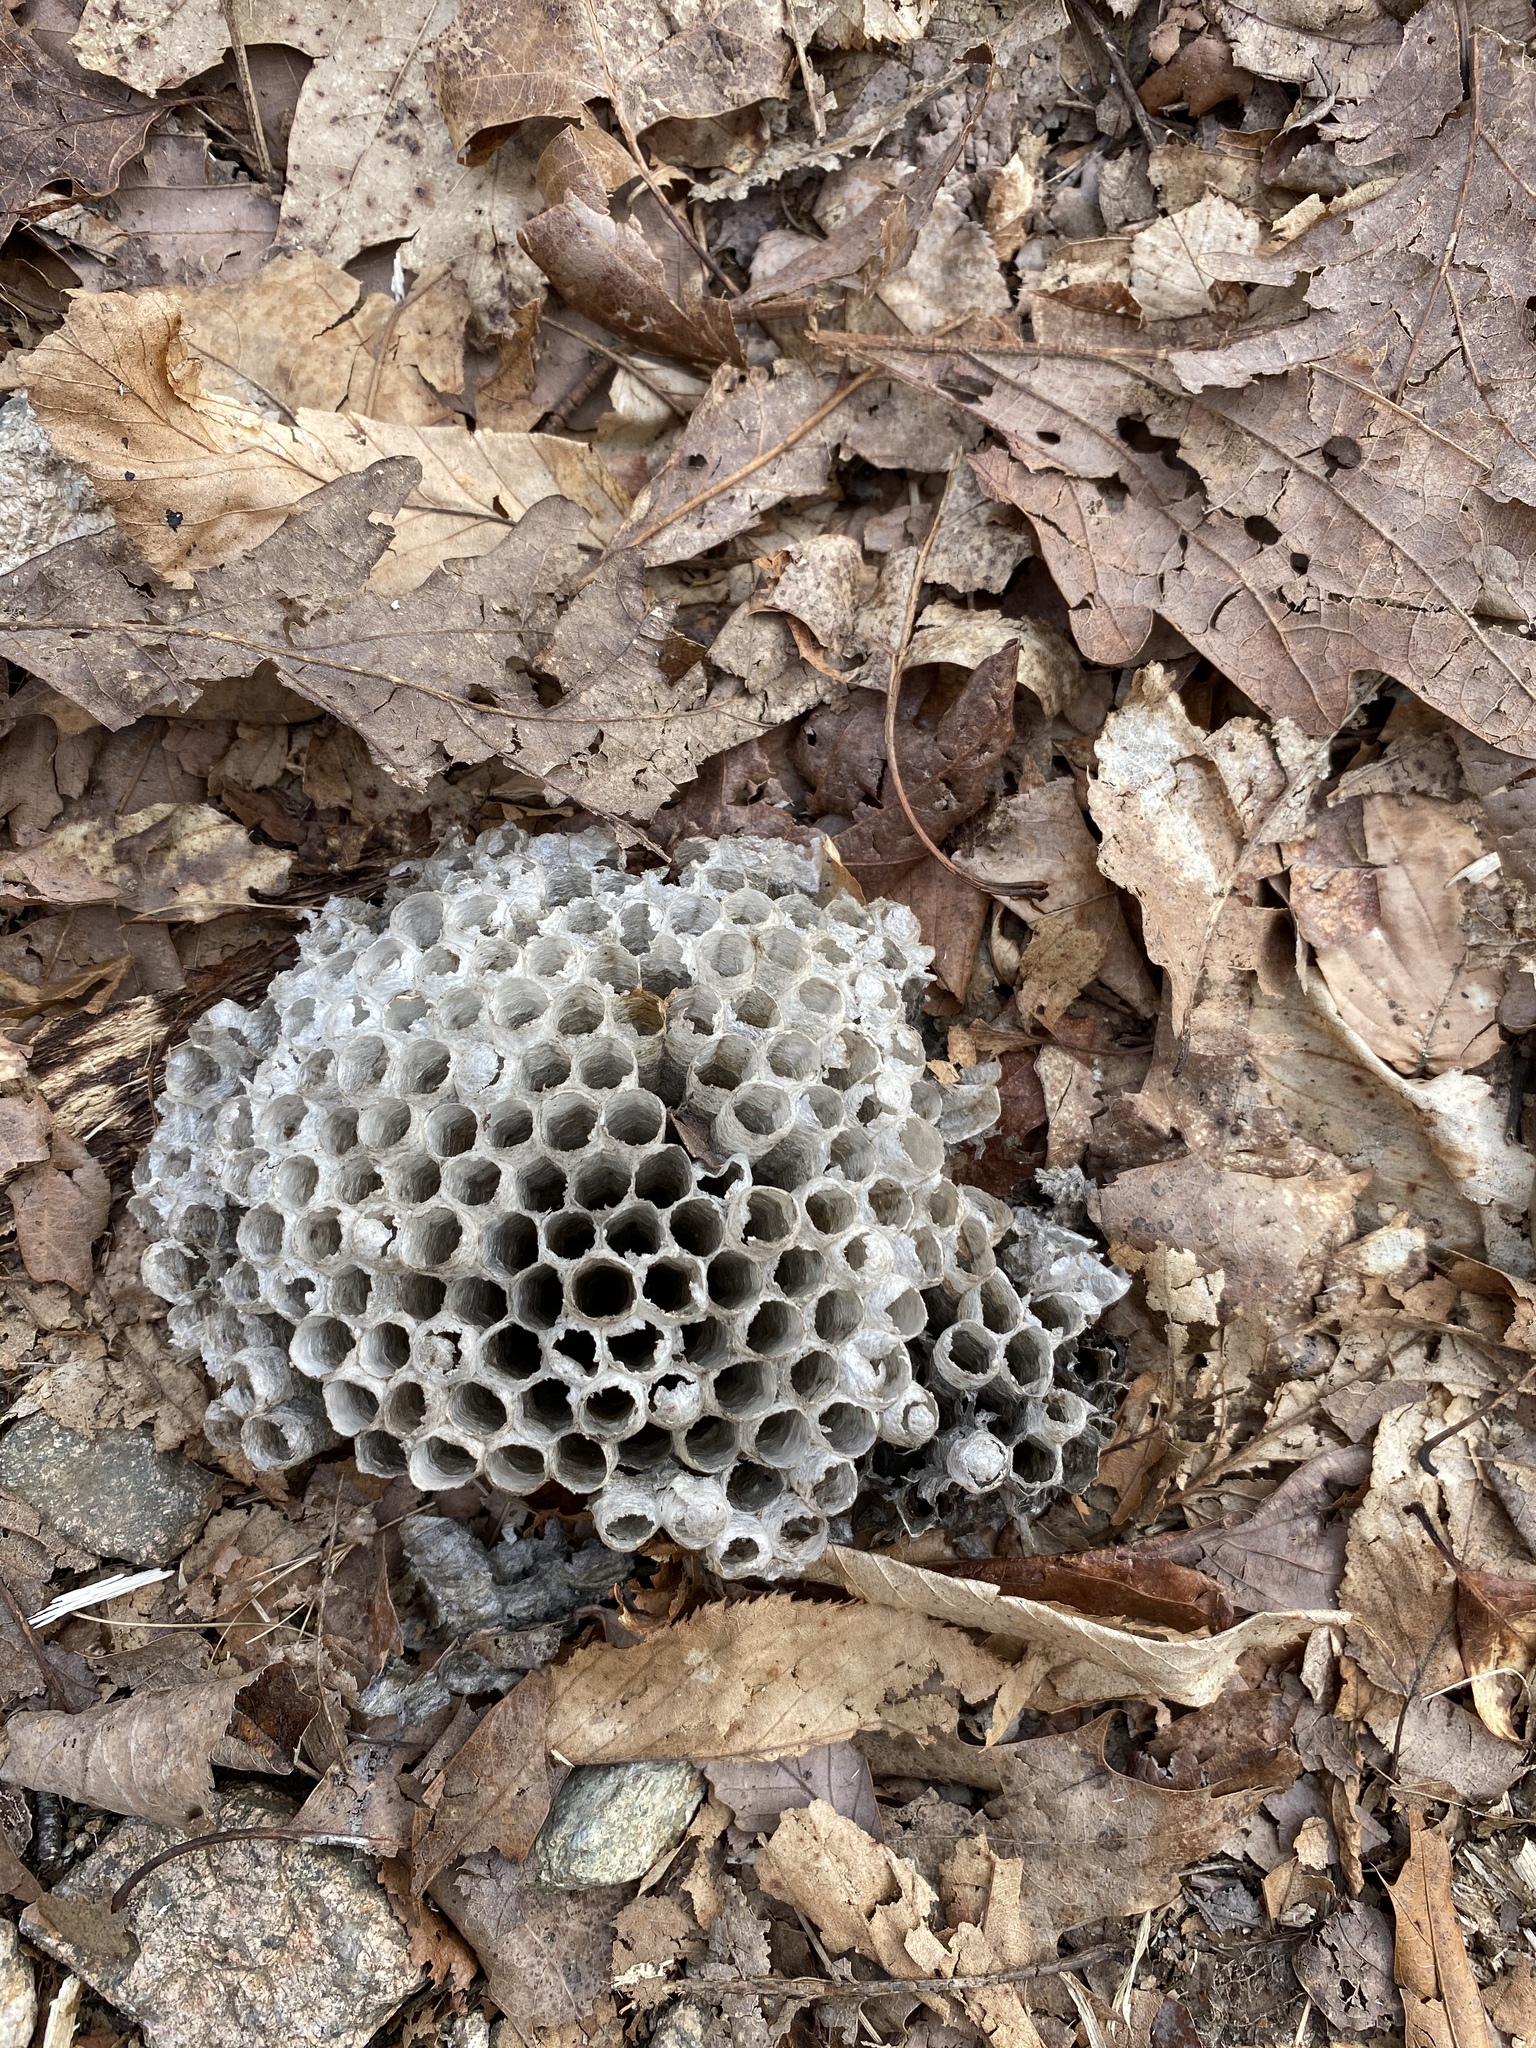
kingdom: Animalia
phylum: Arthropoda
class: Insecta
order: Hymenoptera
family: Eumenidae
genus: Polistes
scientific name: Polistes
